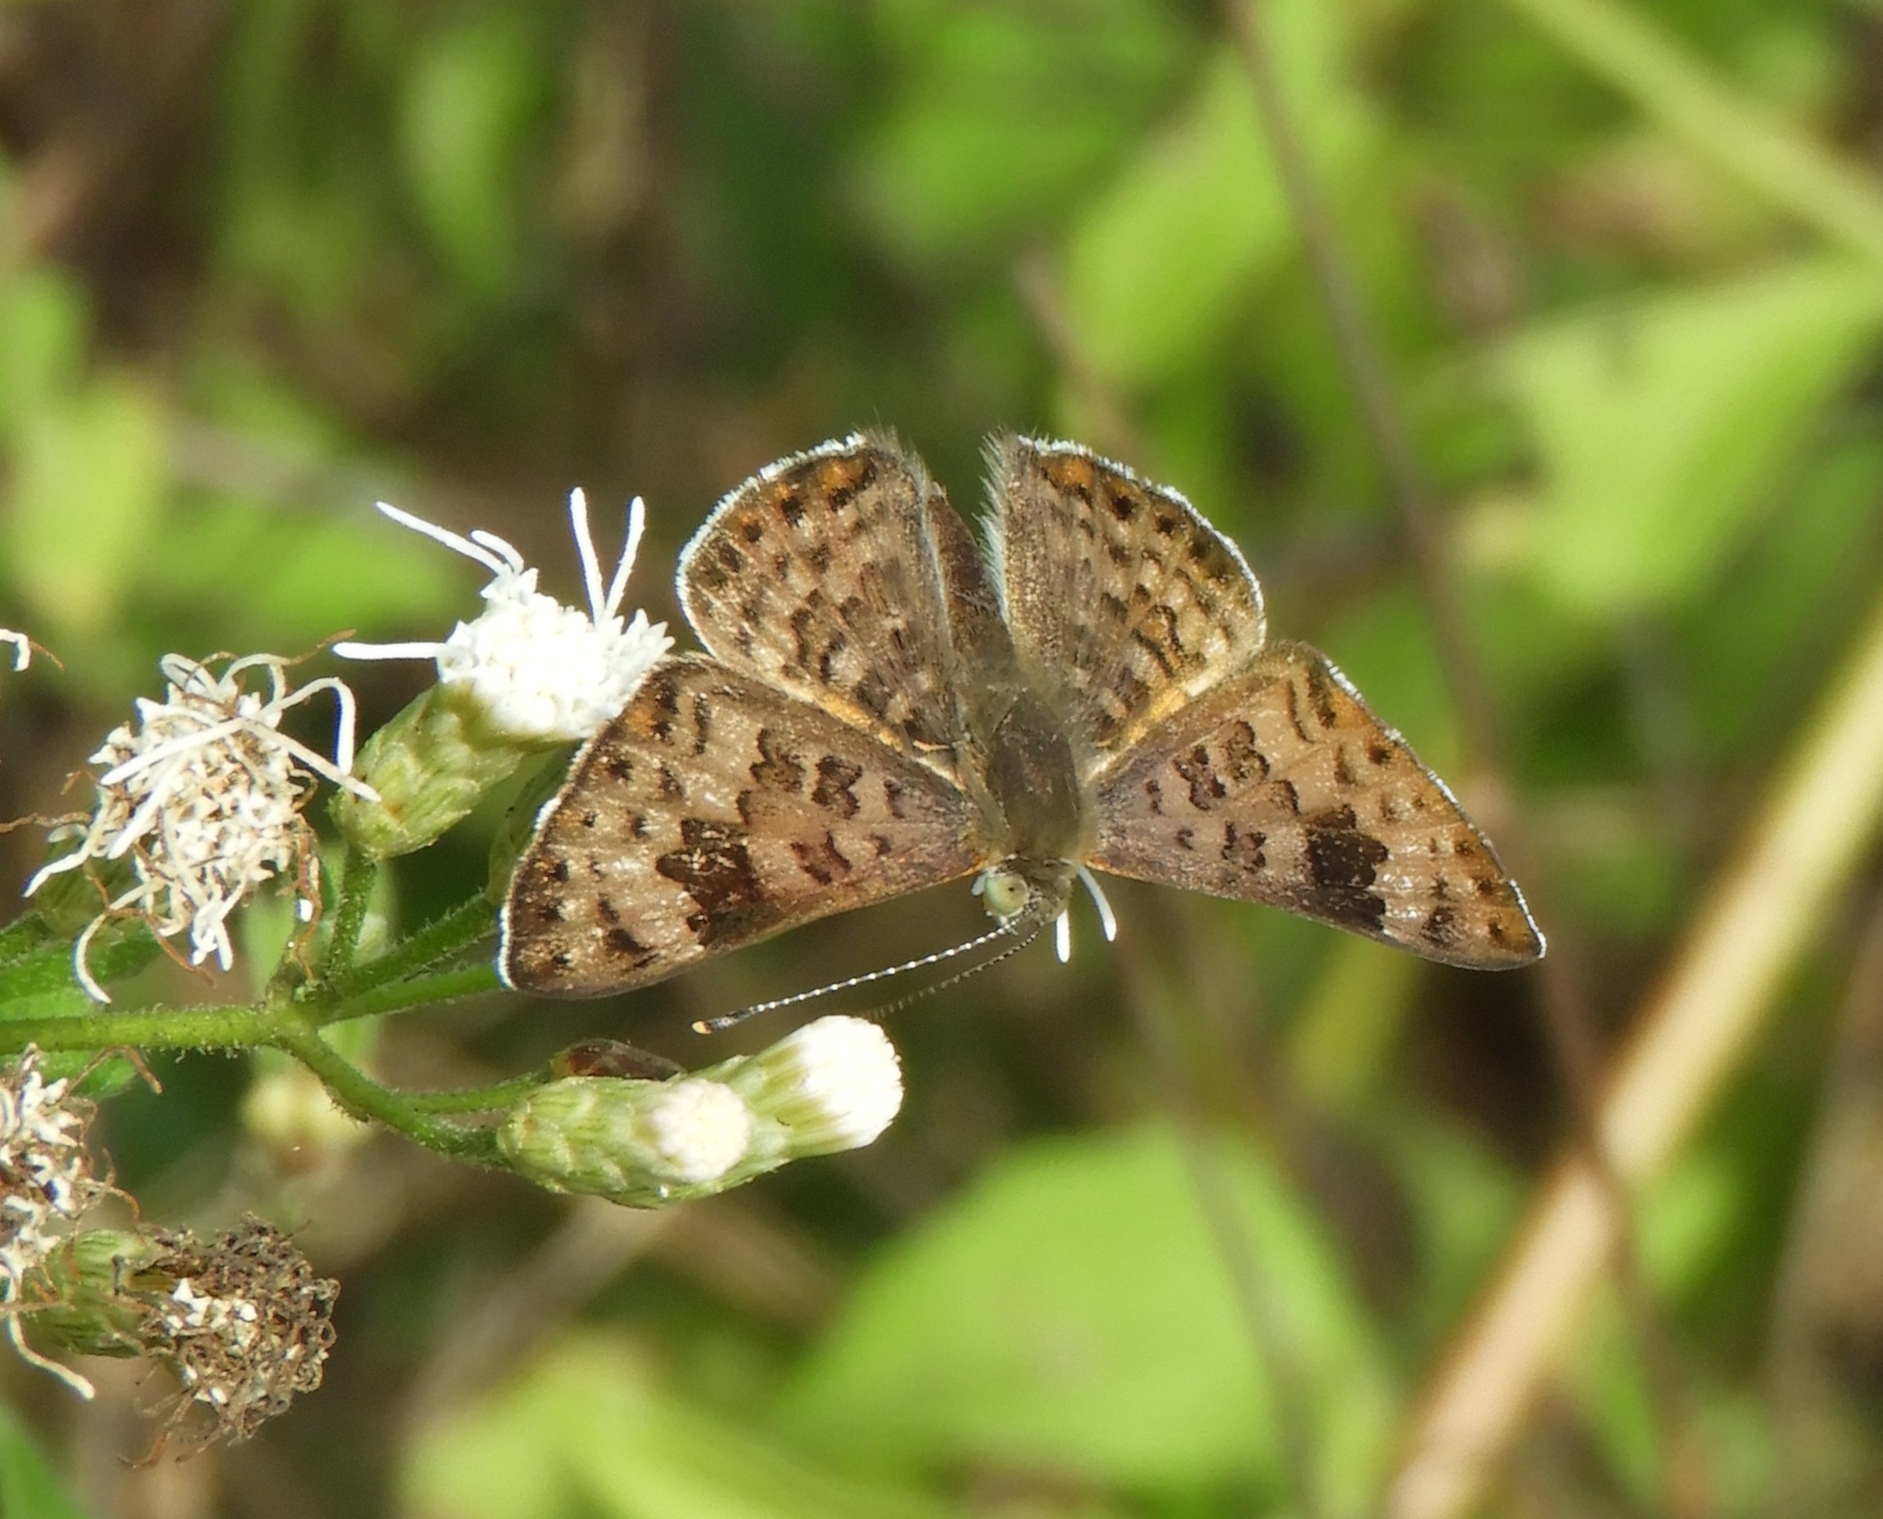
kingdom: Animalia
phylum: Arthropoda
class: Insecta
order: Lepidoptera
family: Riodinidae
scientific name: Riodinidae
